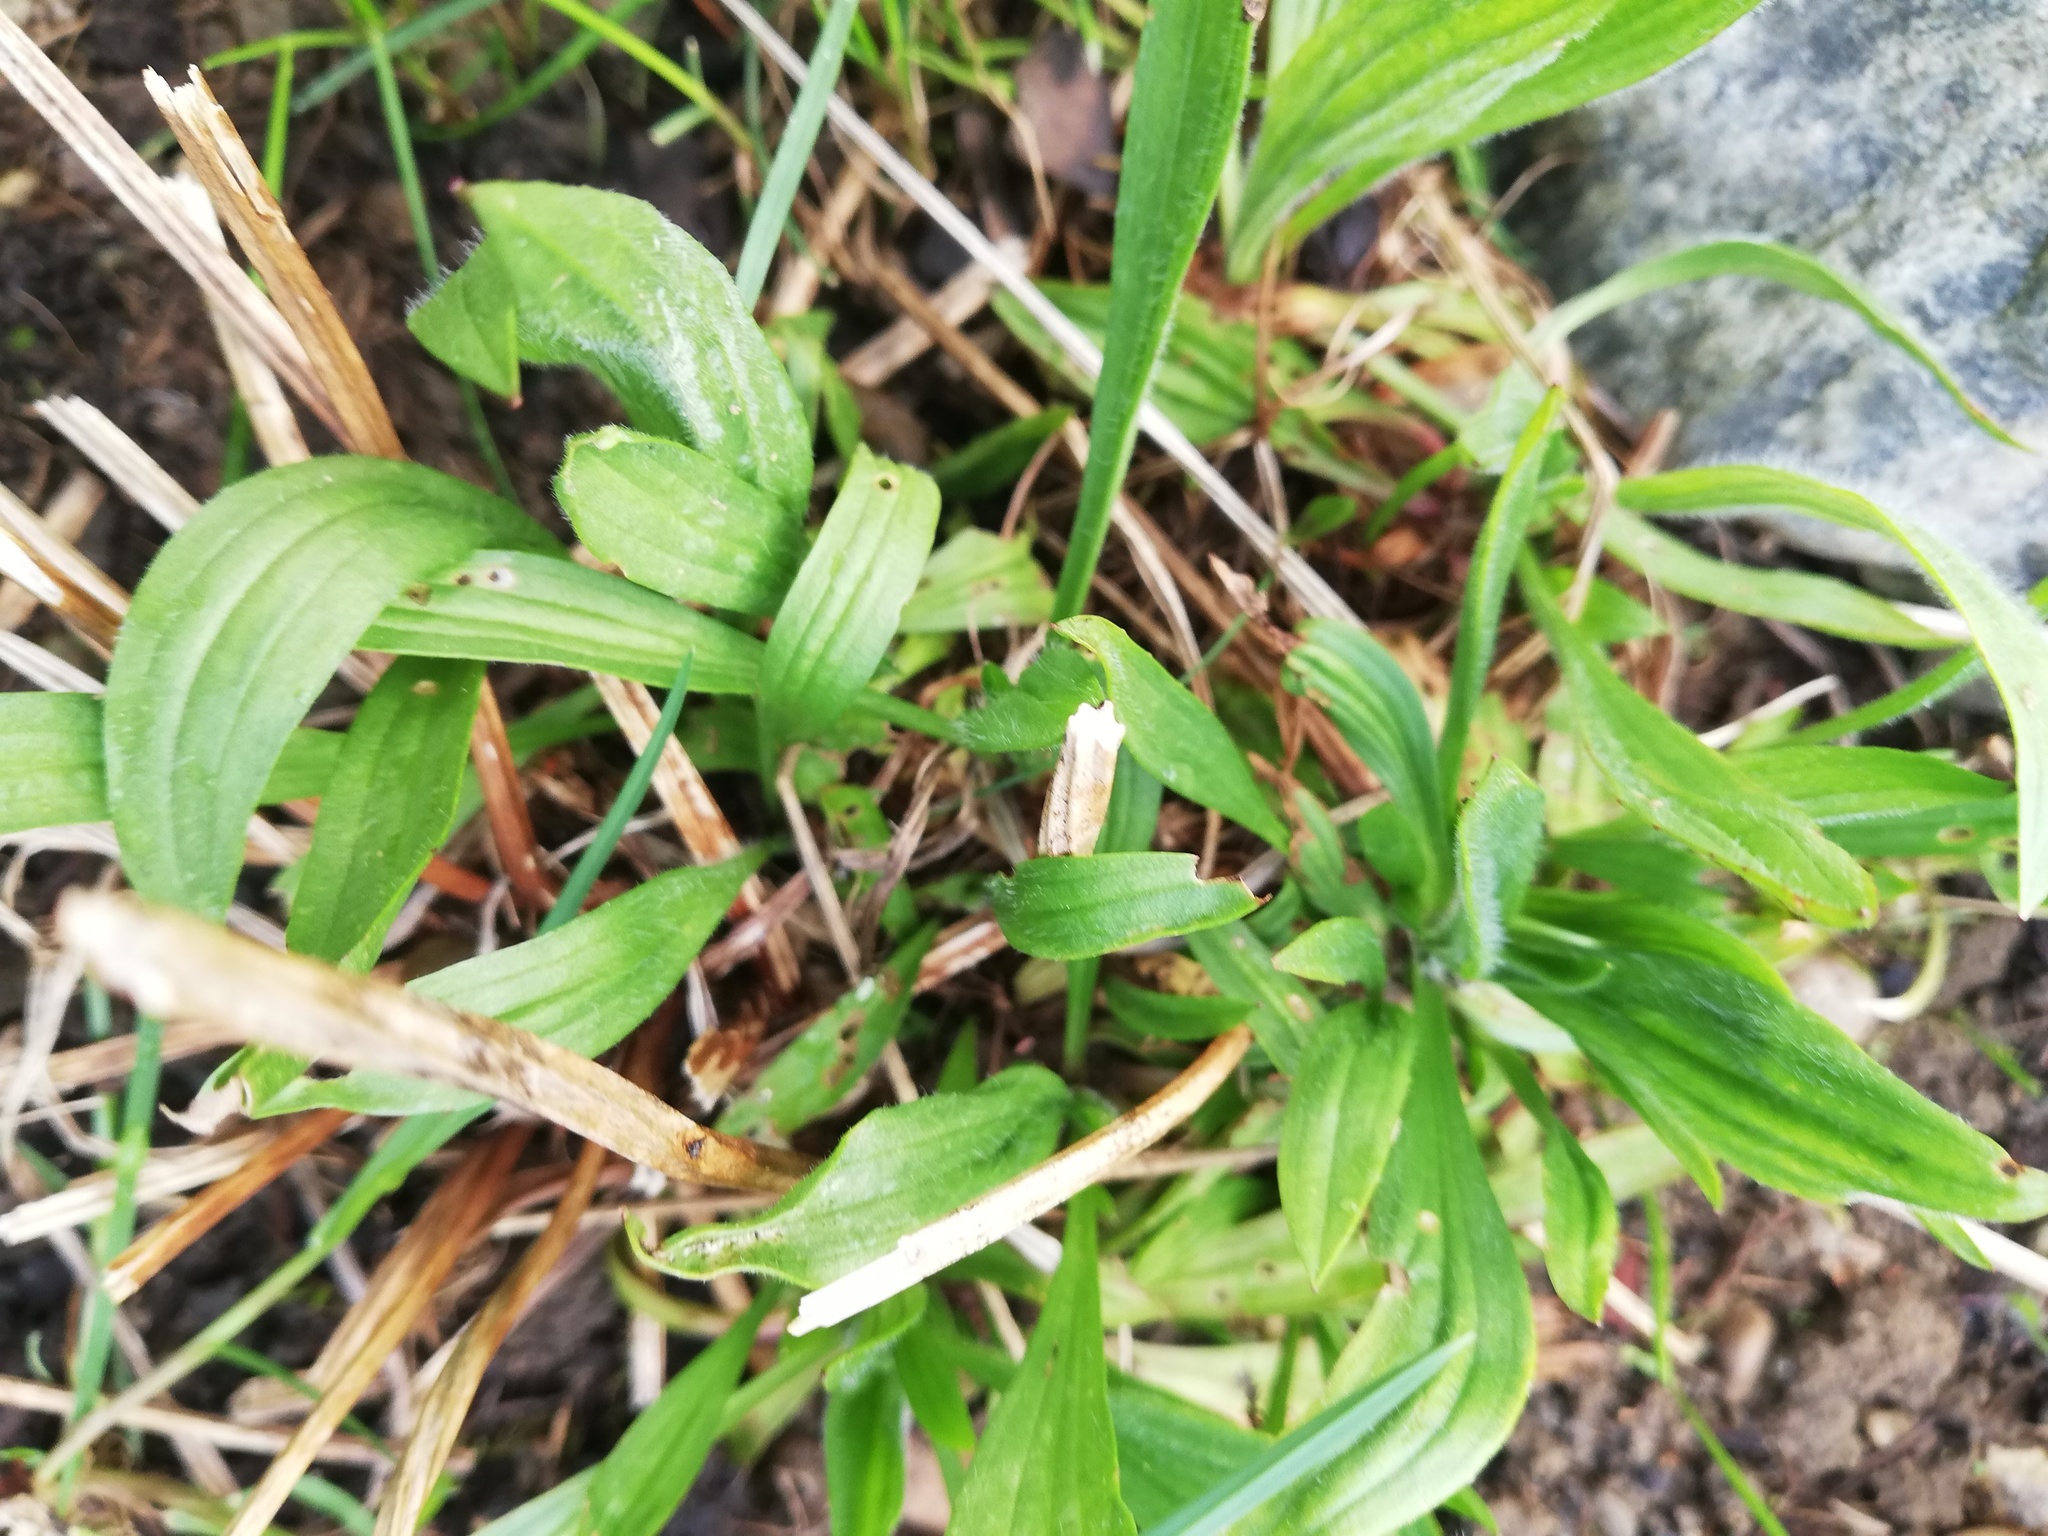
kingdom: Plantae
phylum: Tracheophyta
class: Magnoliopsida
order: Lamiales
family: Plantaginaceae
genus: Plantago
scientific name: Plantago lanceolata
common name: Ribwort plantain
